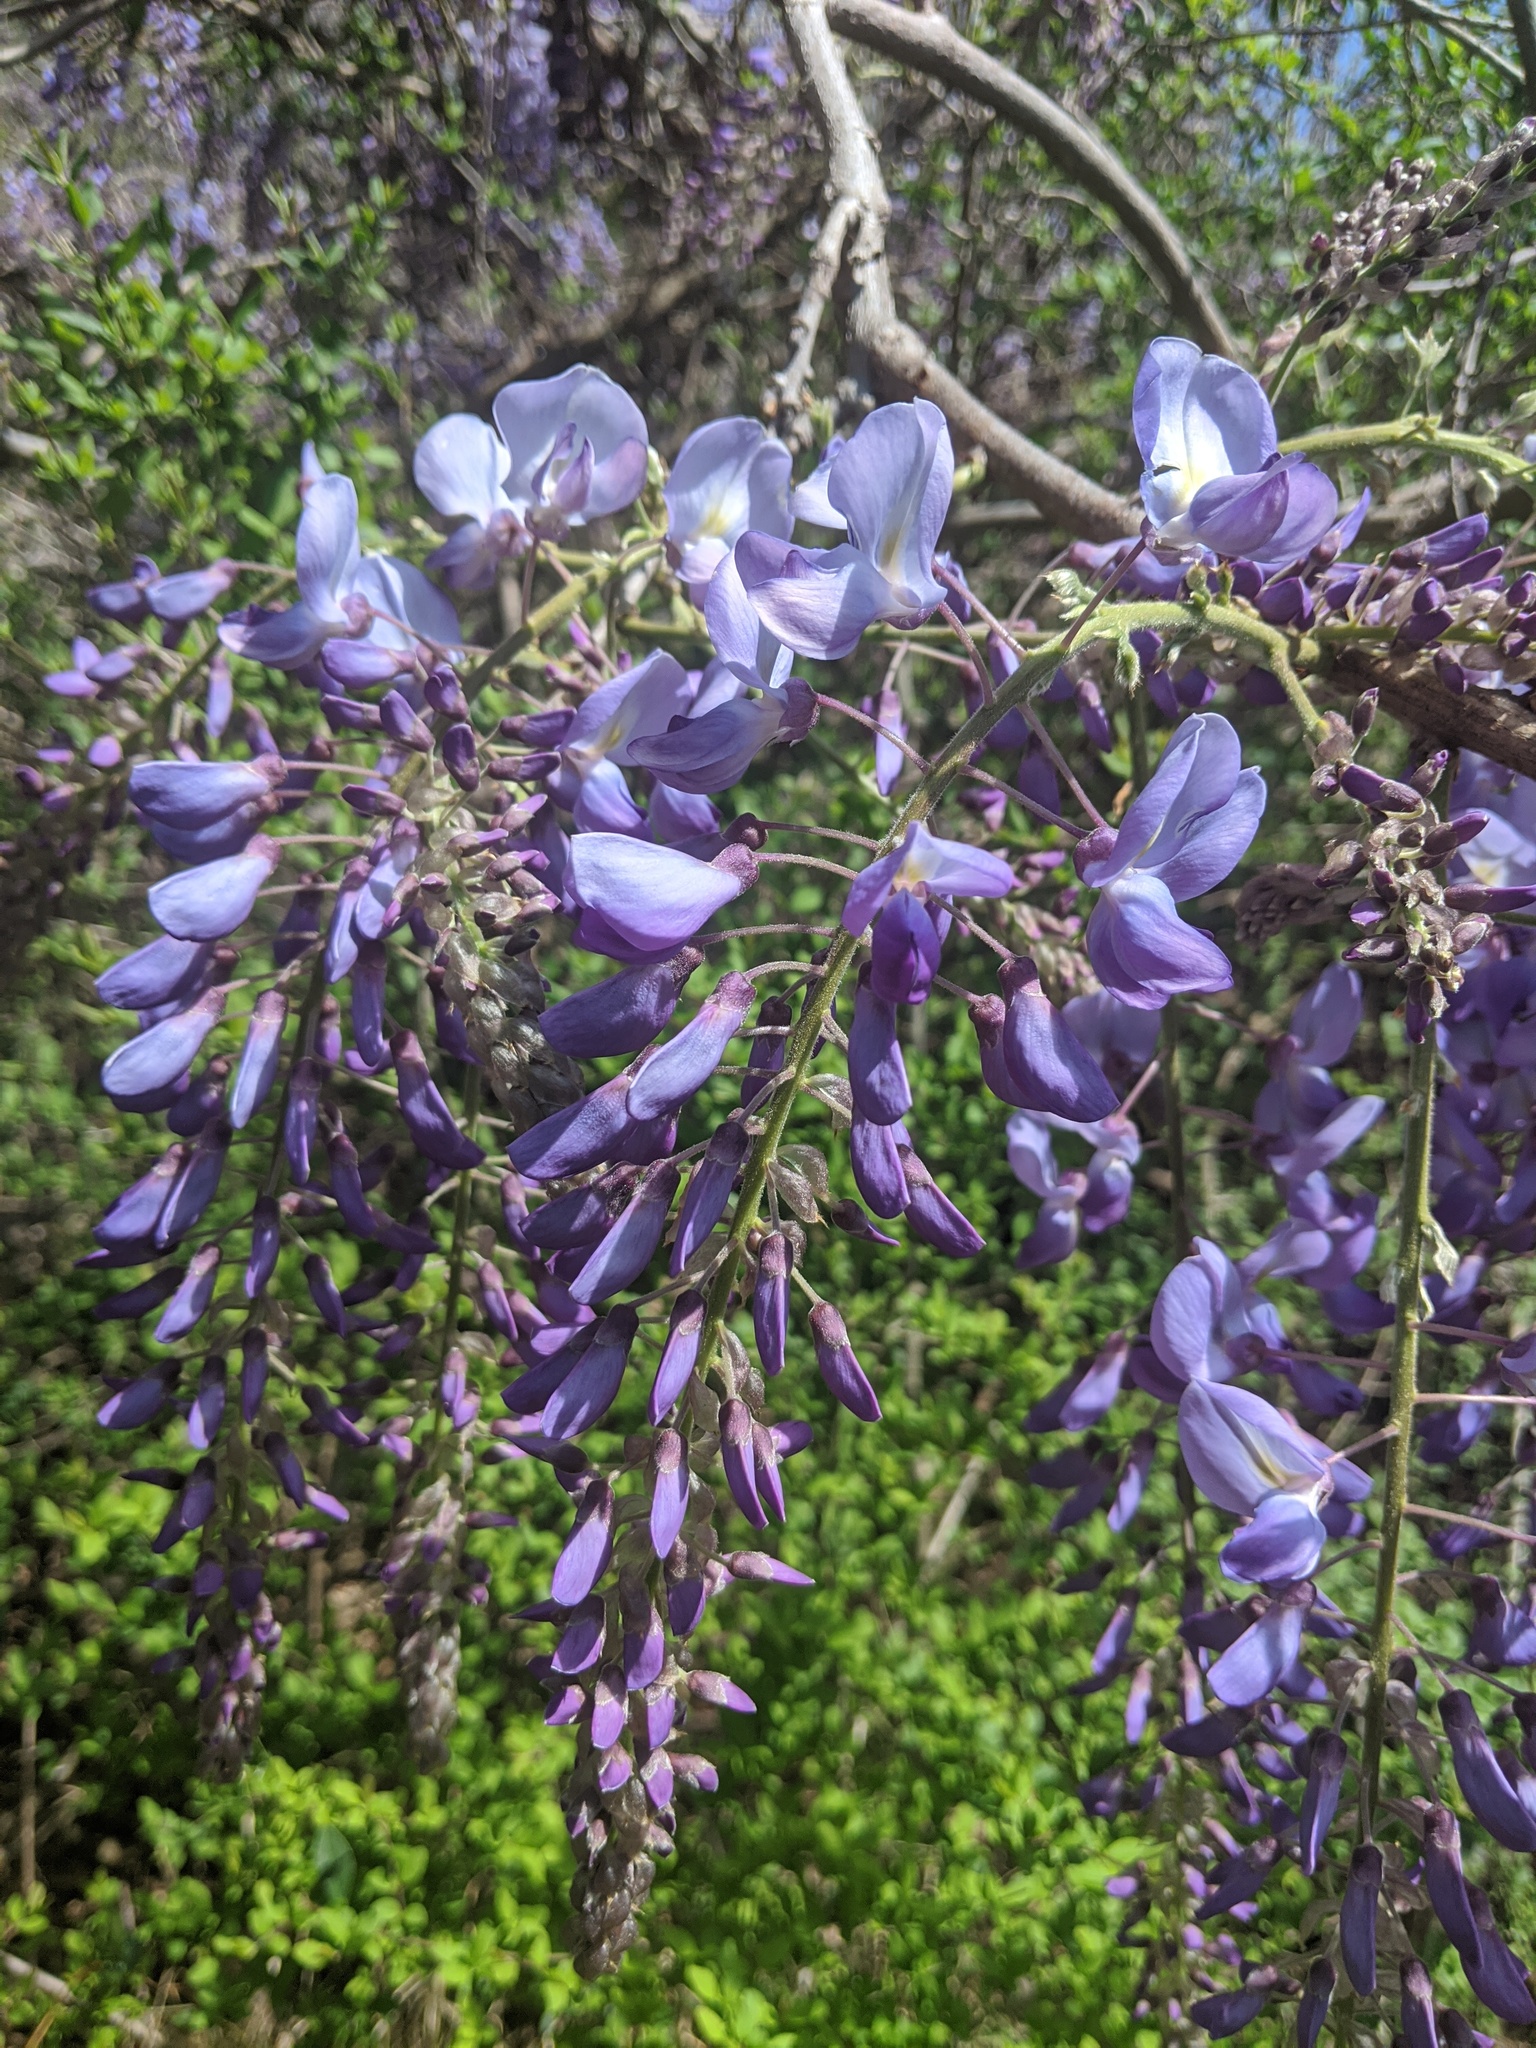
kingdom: Plantae
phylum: Tracheophyta
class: Magnoliopsida
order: Fabales
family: Fabaceae
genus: Wisteria
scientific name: Wisteria sinensis
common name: Chinese wisteria
